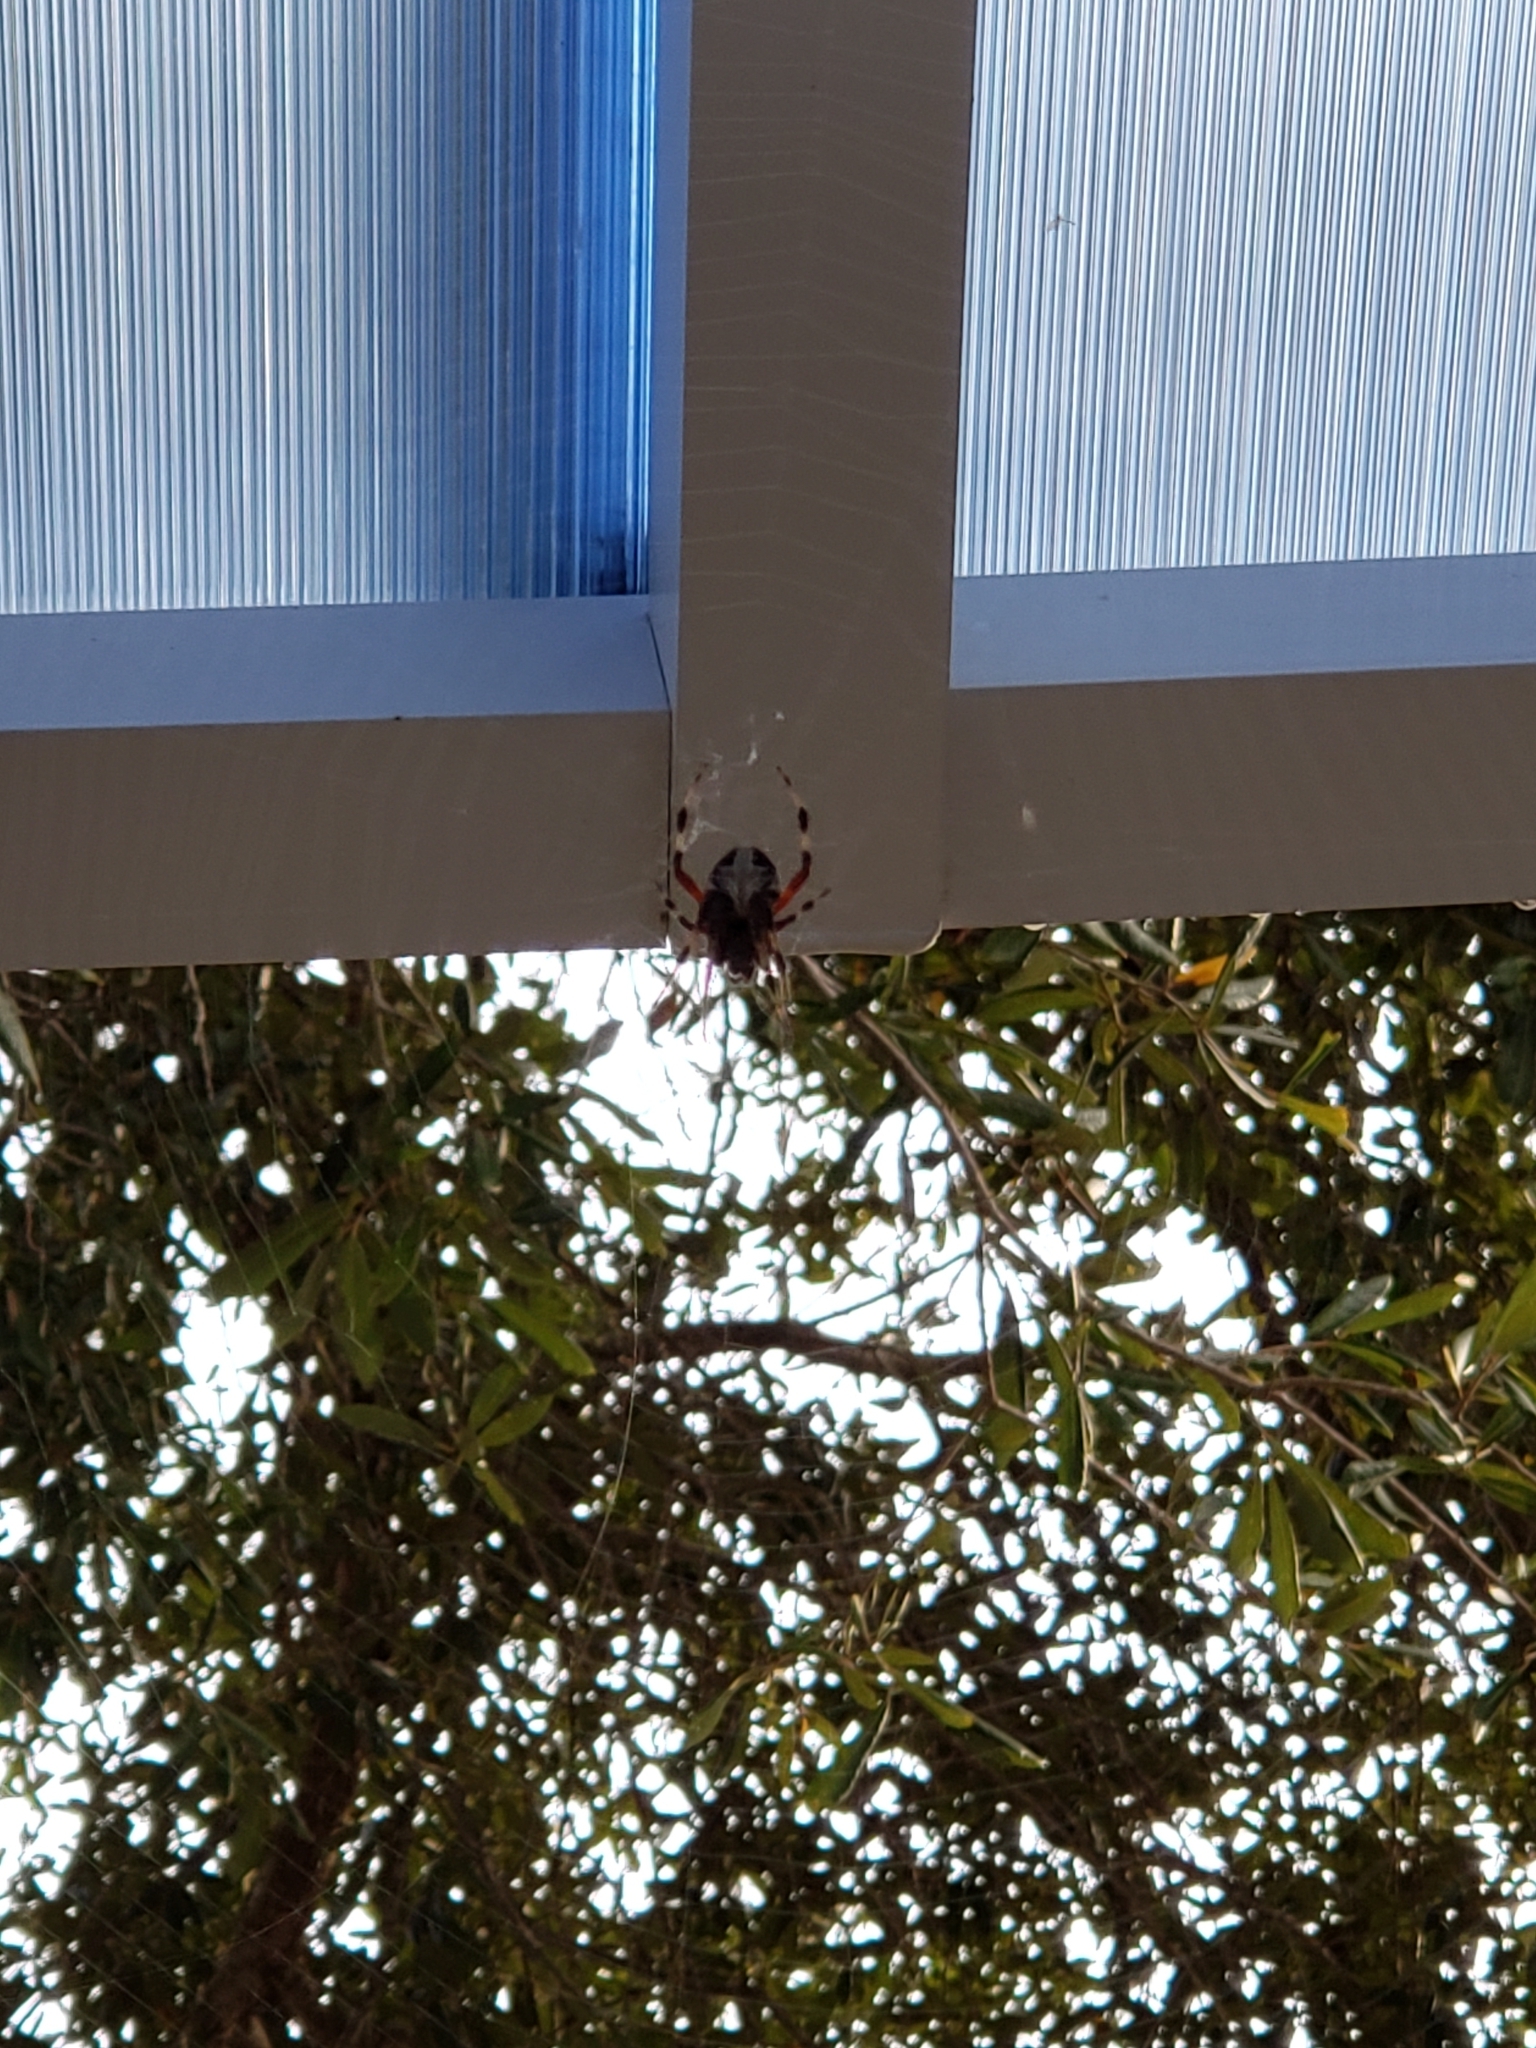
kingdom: Animalia
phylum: Arthropoda
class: Arachnida
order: Araneae
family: Araneidae
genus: Neoscona
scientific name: Neoscona domiciliorum
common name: Red-femured spotted orbweaver
